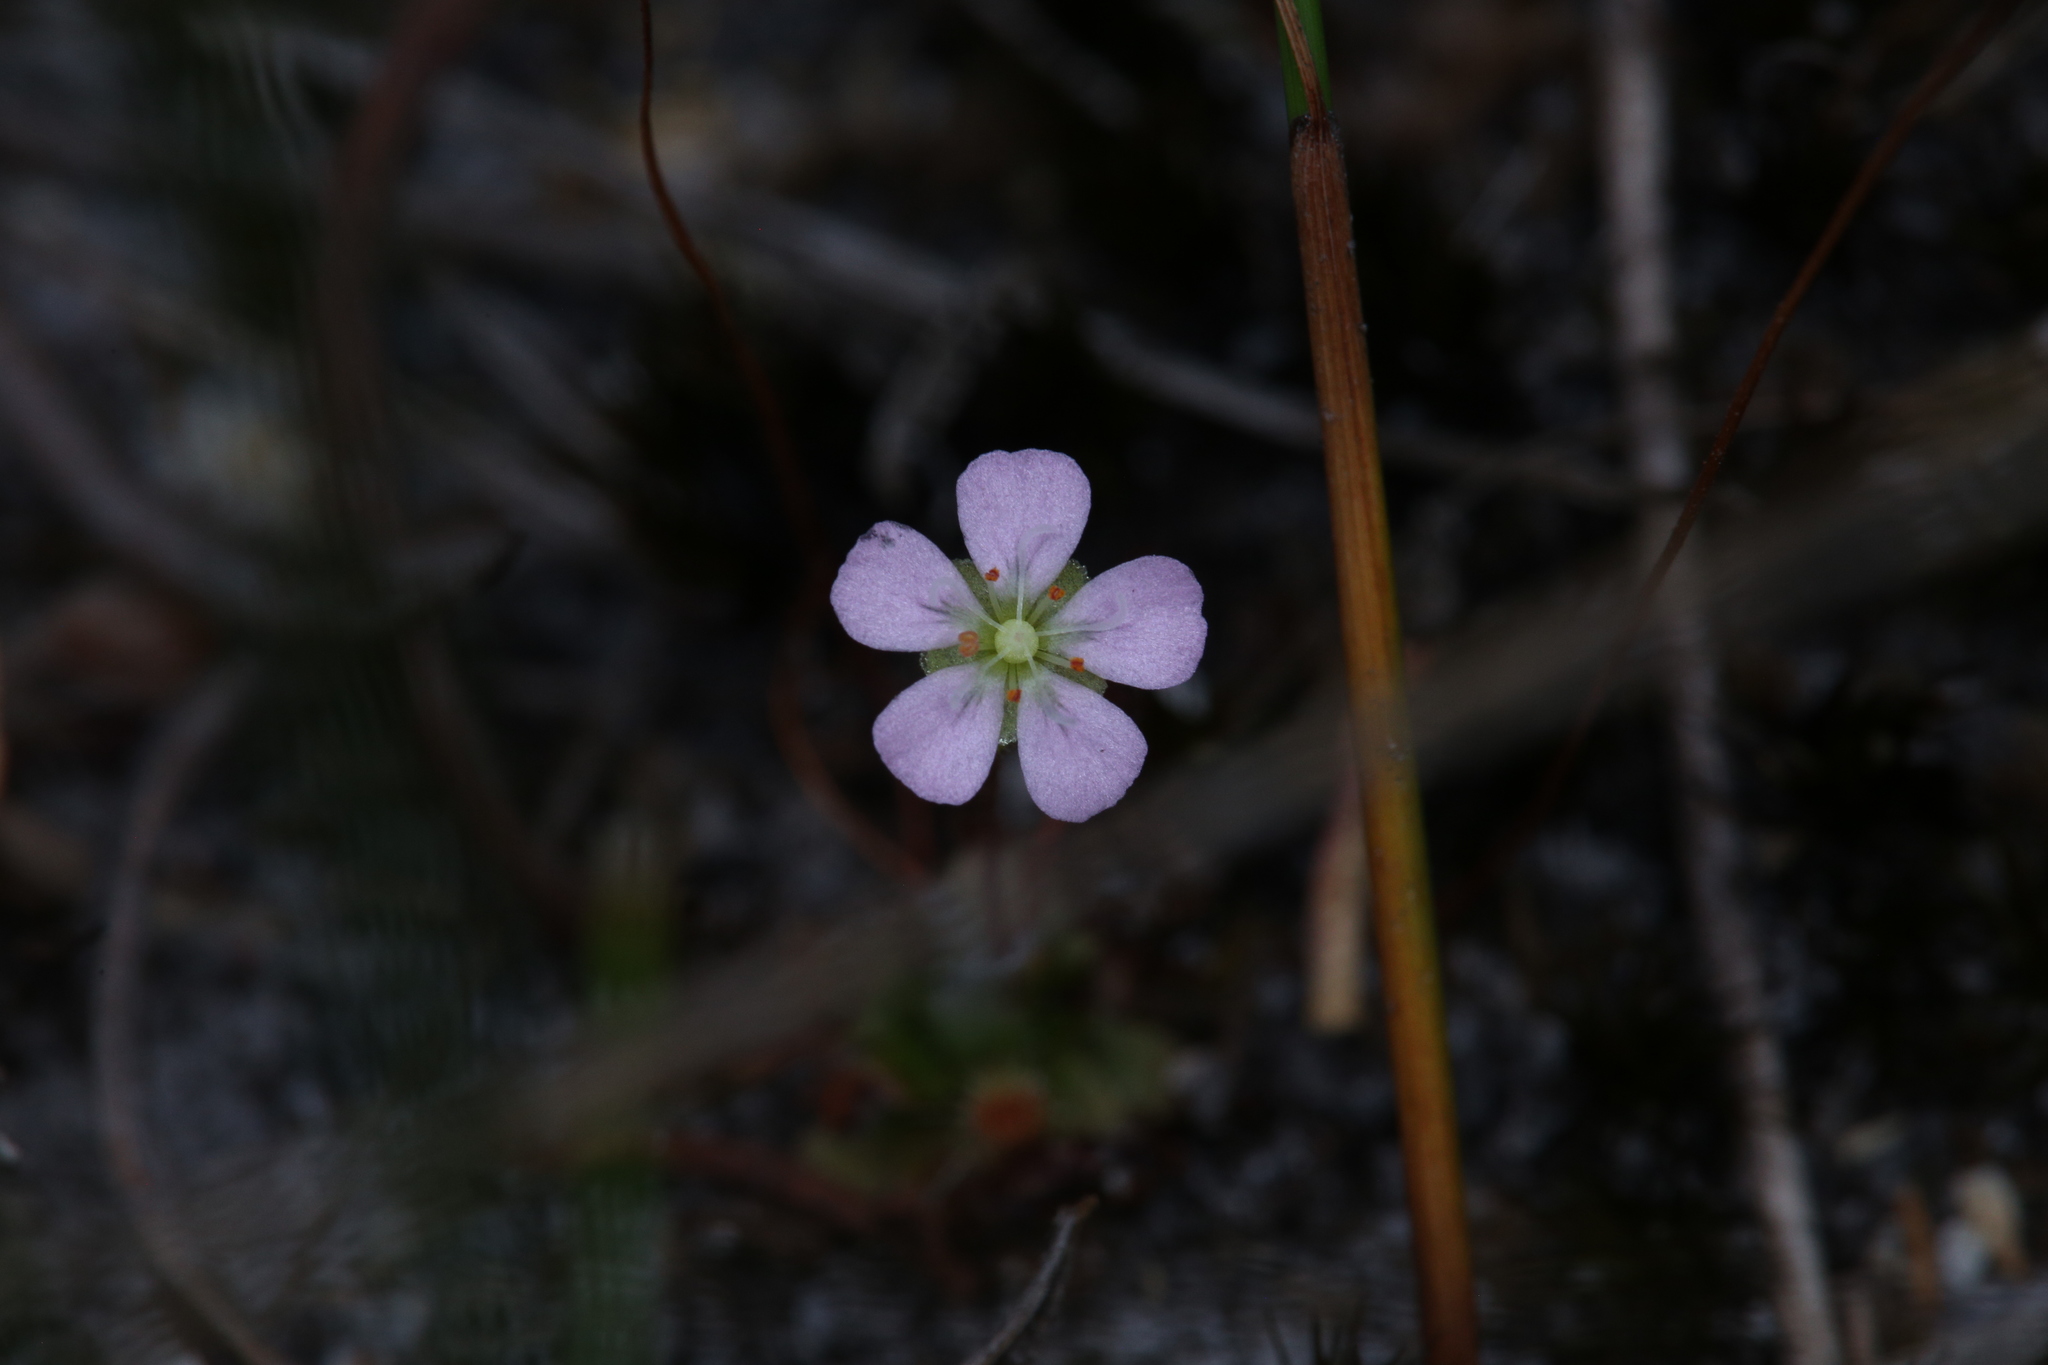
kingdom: Plantae
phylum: Tracheophyta
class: Magnoliopsida
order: Caryophyllales
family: Droseraceae
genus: Drosera
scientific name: Drosera pulchella
